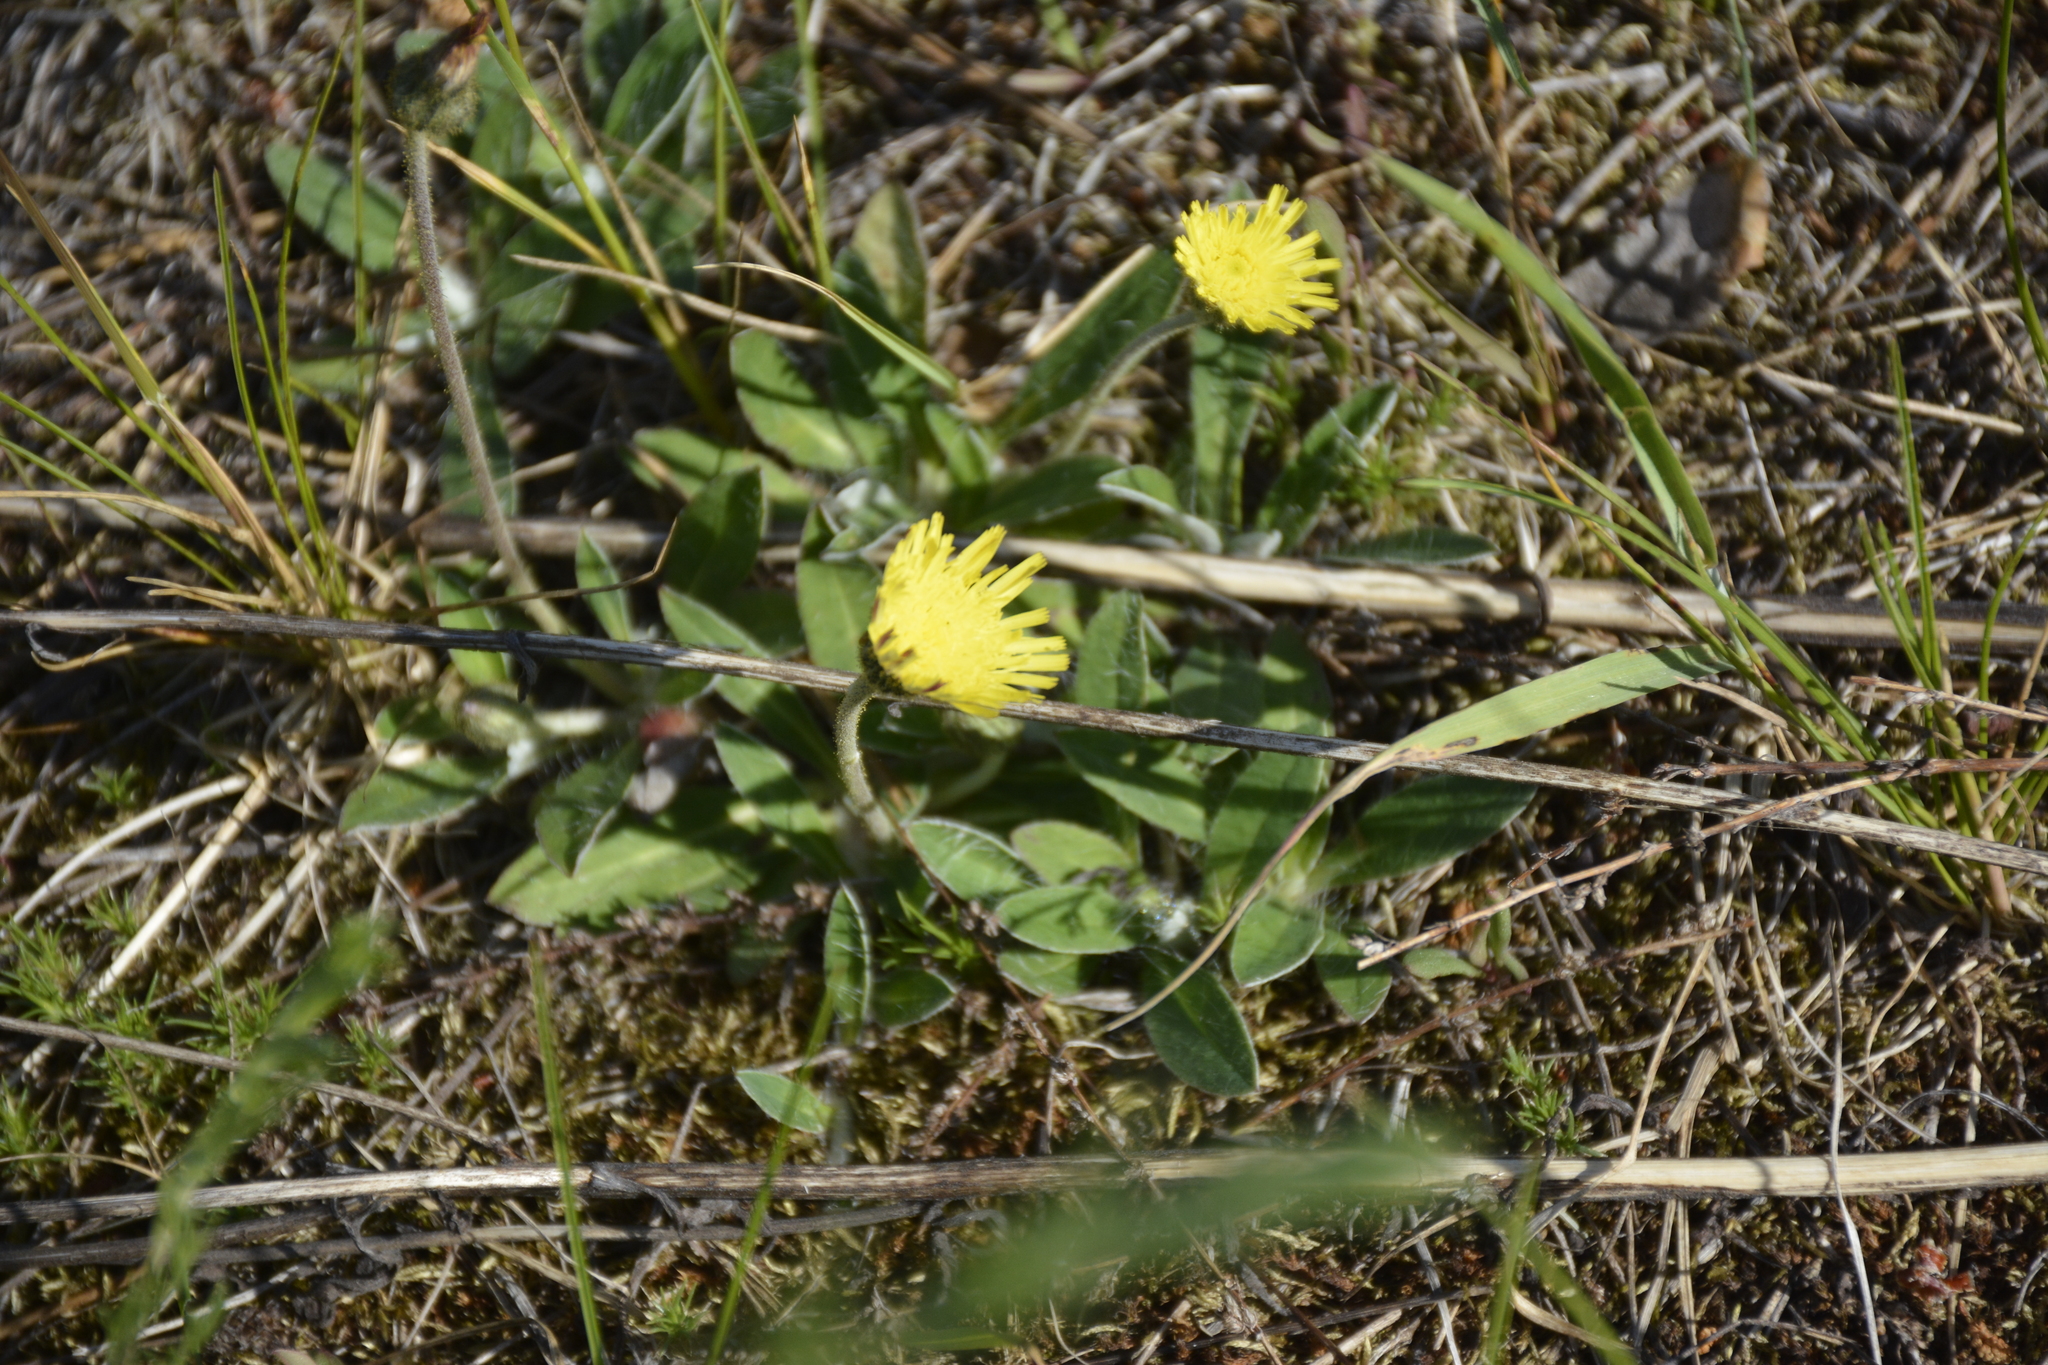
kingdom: Plantae
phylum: Tracheophyta
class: Magnoliopsida
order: Asterales
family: Asteraceae
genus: Pilosella
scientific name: Pilosella officinarum
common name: Mouse-ear hawkweed
